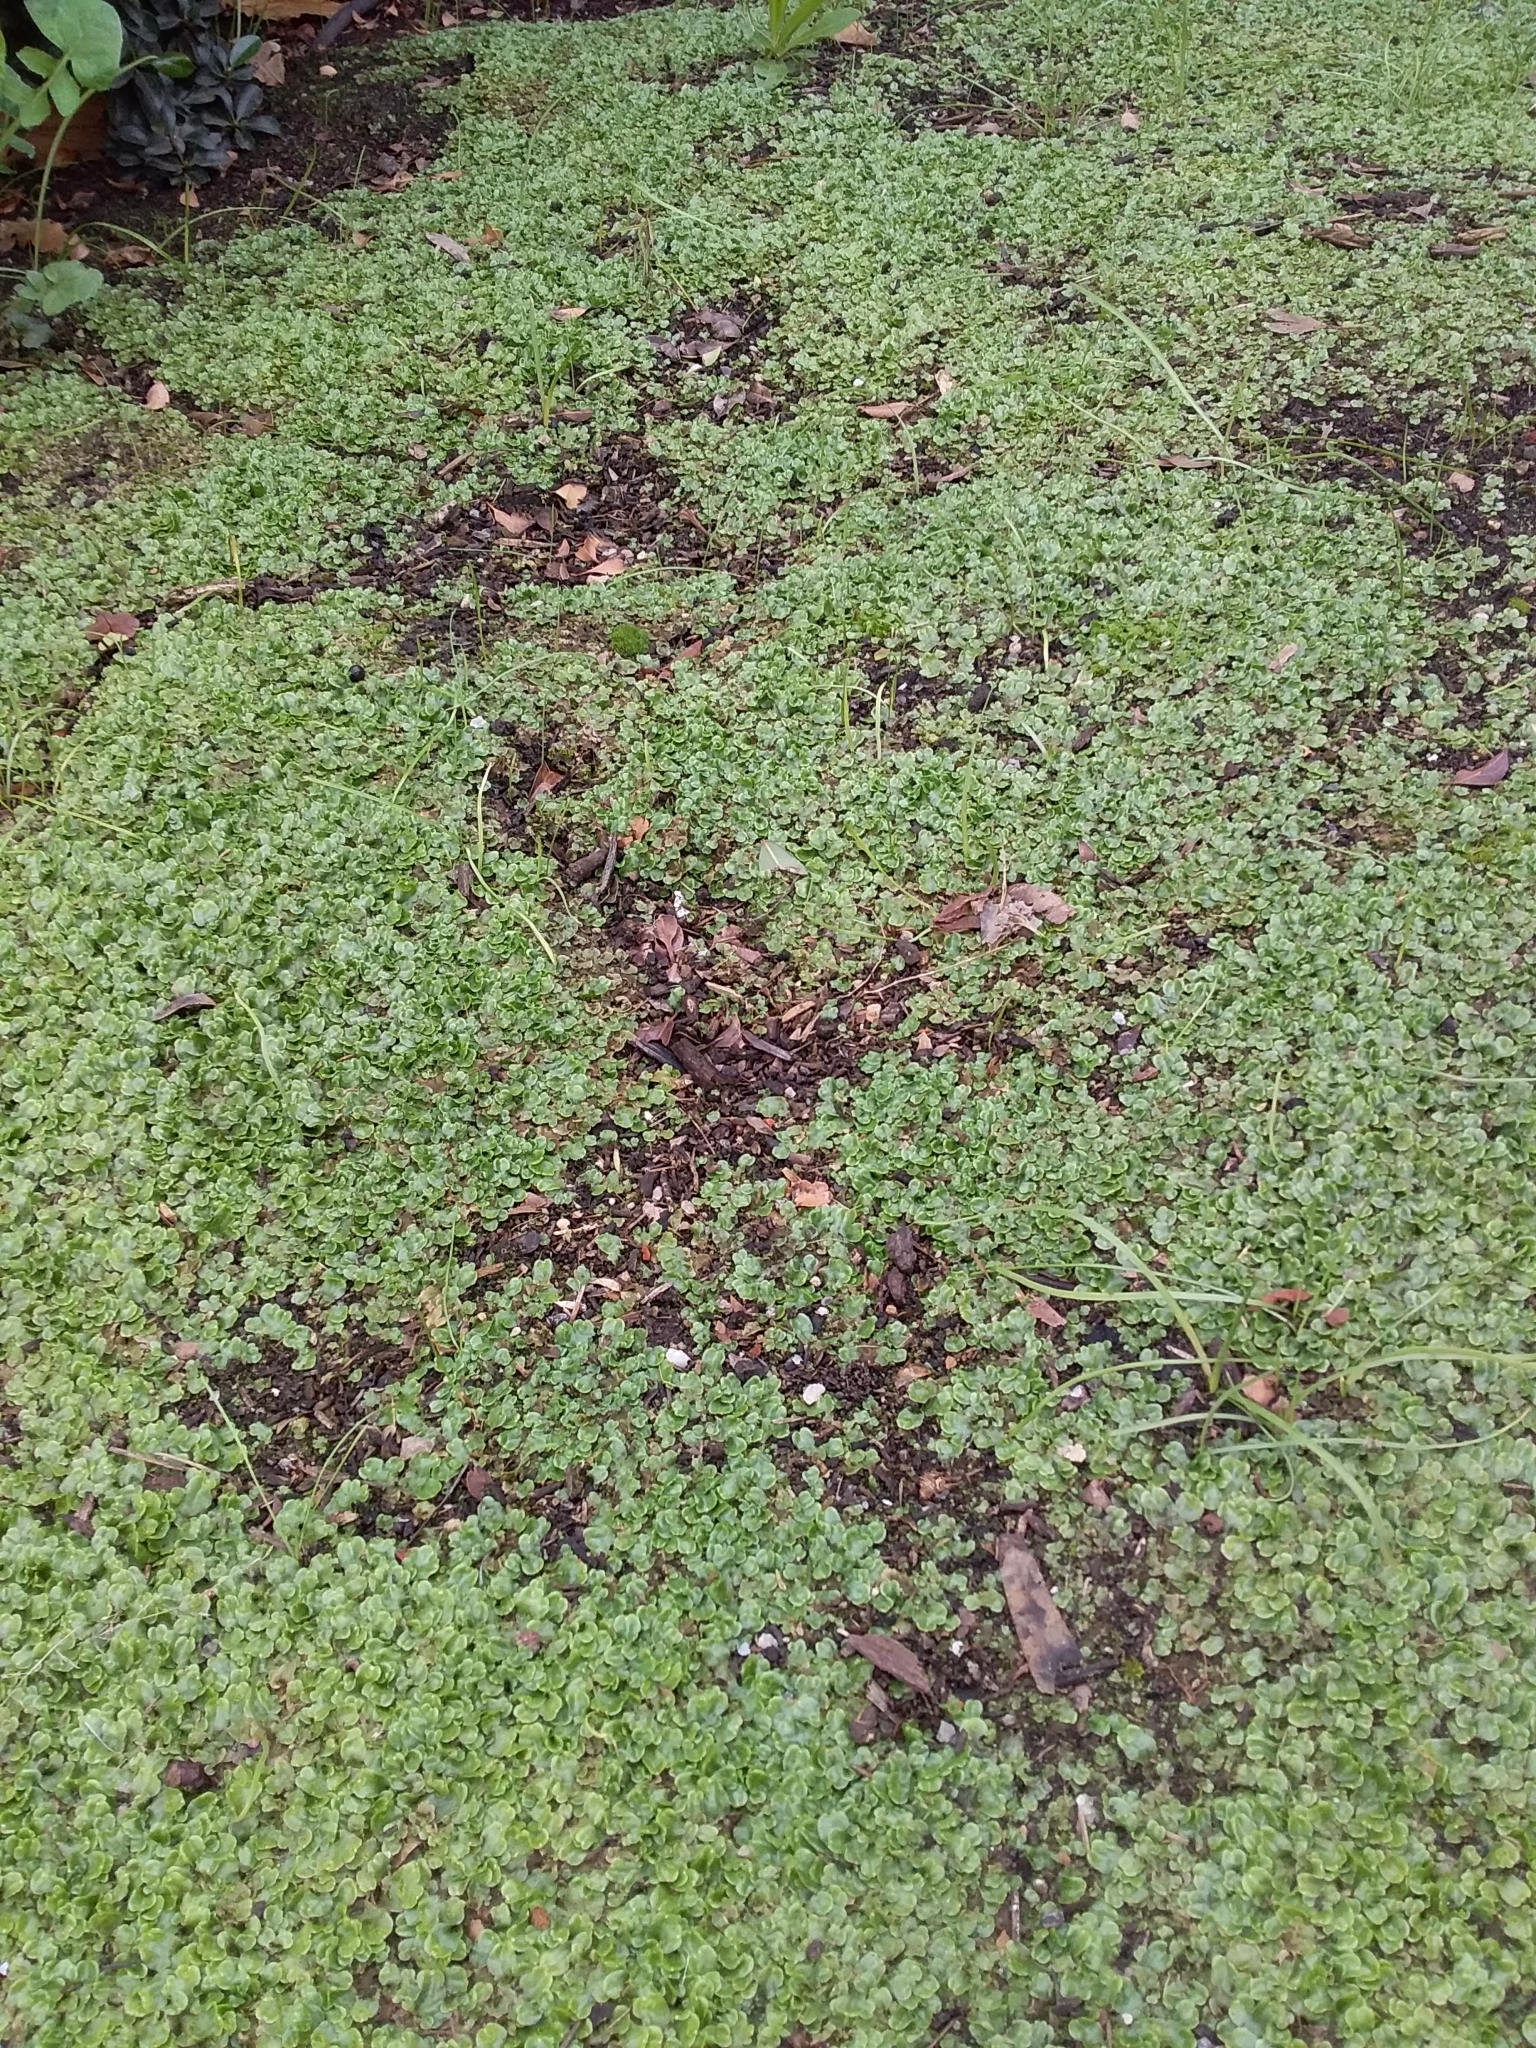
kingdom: Plantae
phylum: Marchantiophyta
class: Marchantiopsida
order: Lunulariales
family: Lunulariaceae
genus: Lunularia
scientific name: Lunularia cruciata
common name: Crescent-cup liverwort
